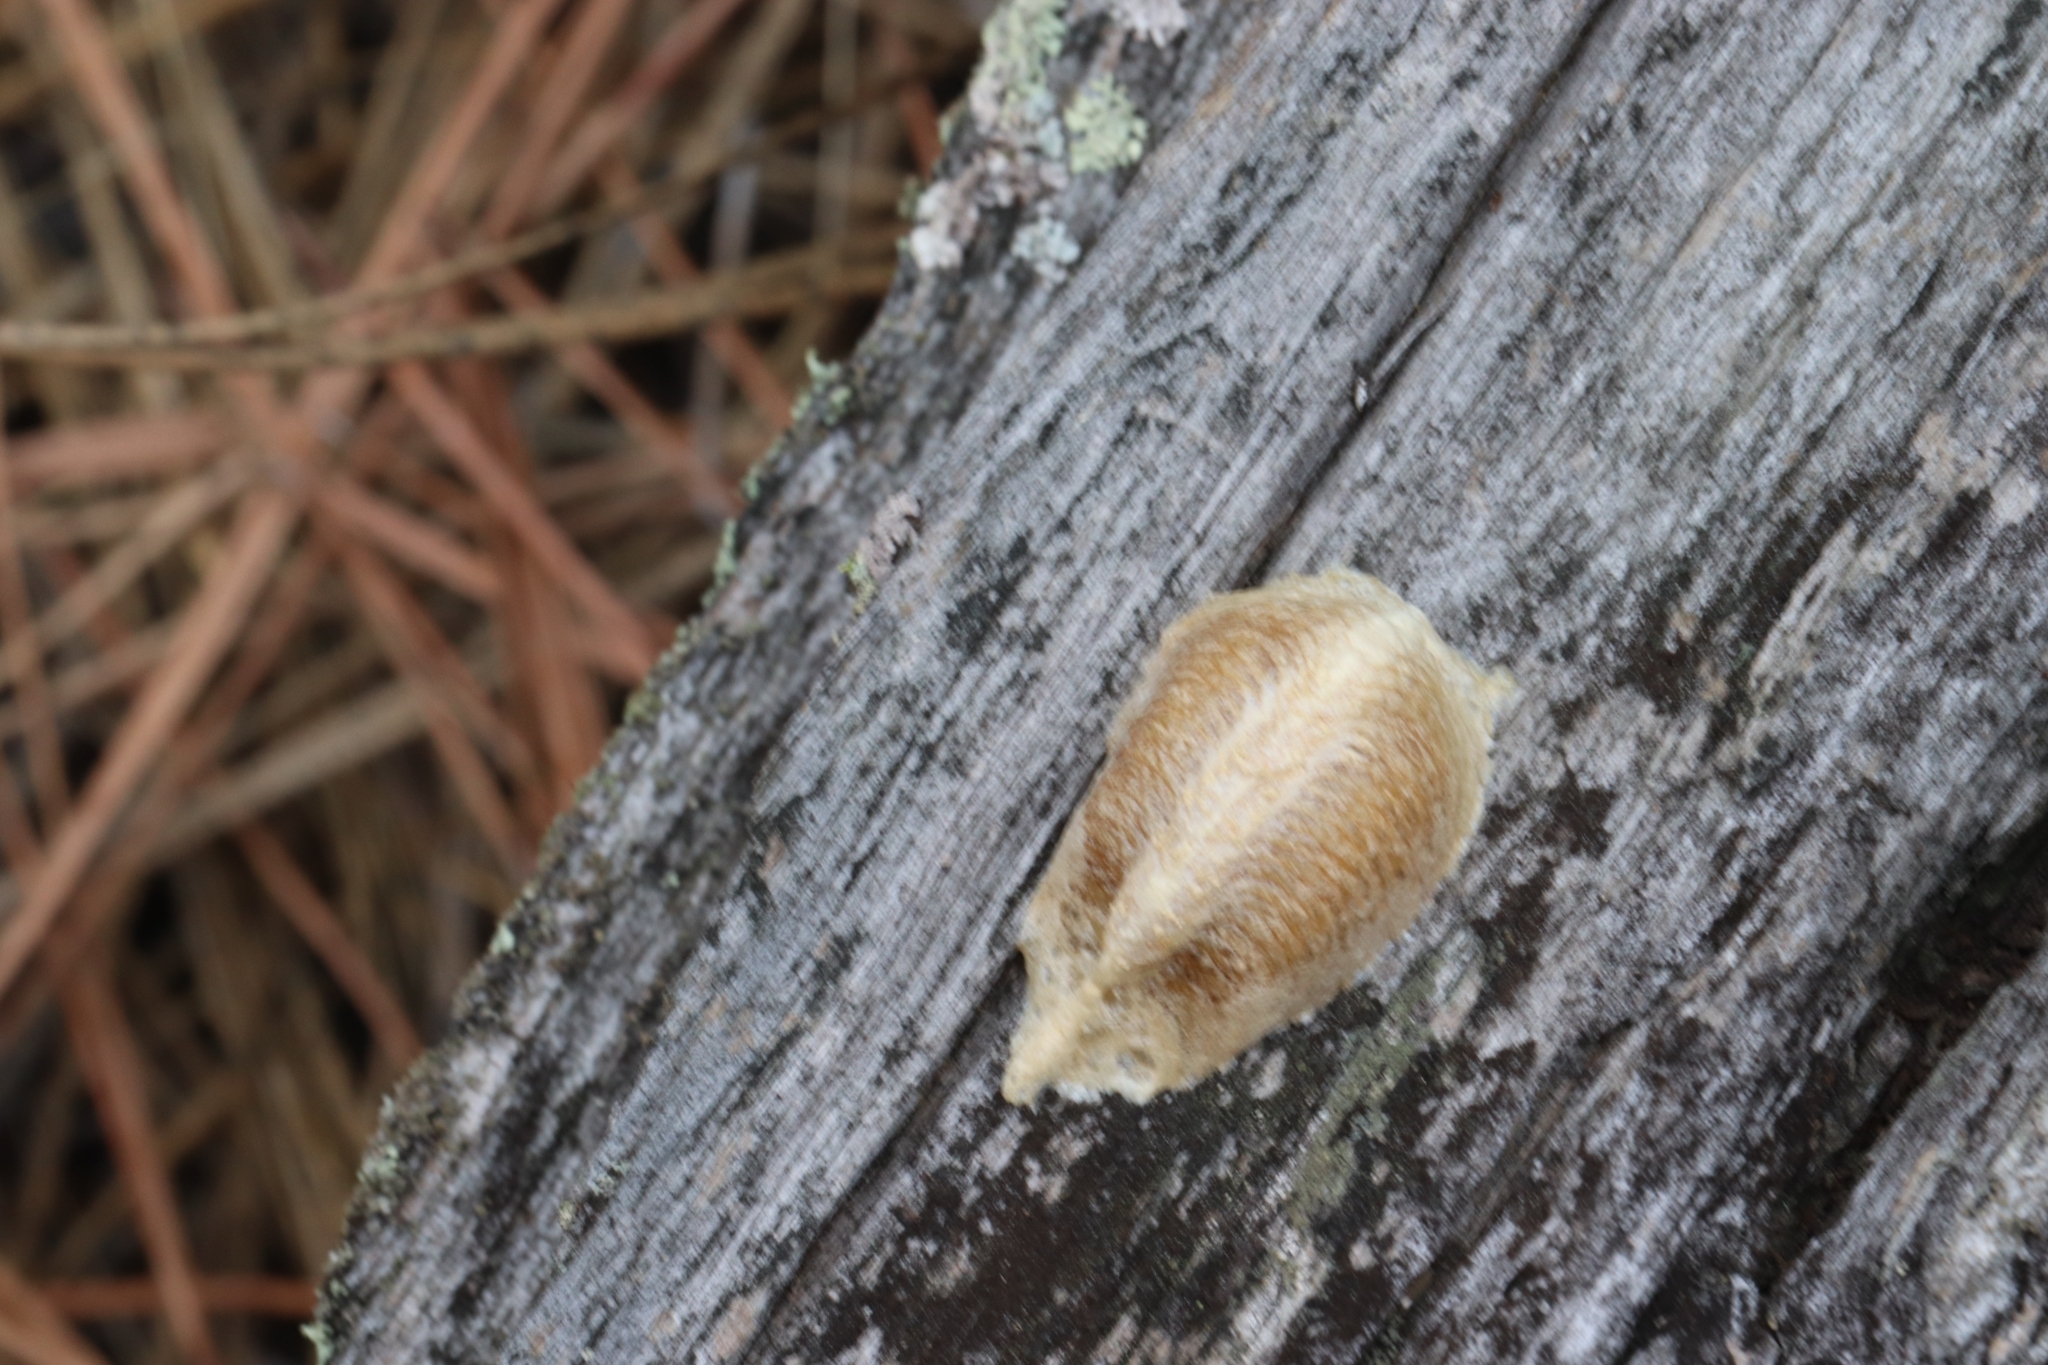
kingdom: Animalia
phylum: Arthropoda
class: Insecta
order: Mantodea
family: Mantidae
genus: Mantis
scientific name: Mantis religiosa
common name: Praying mantis
